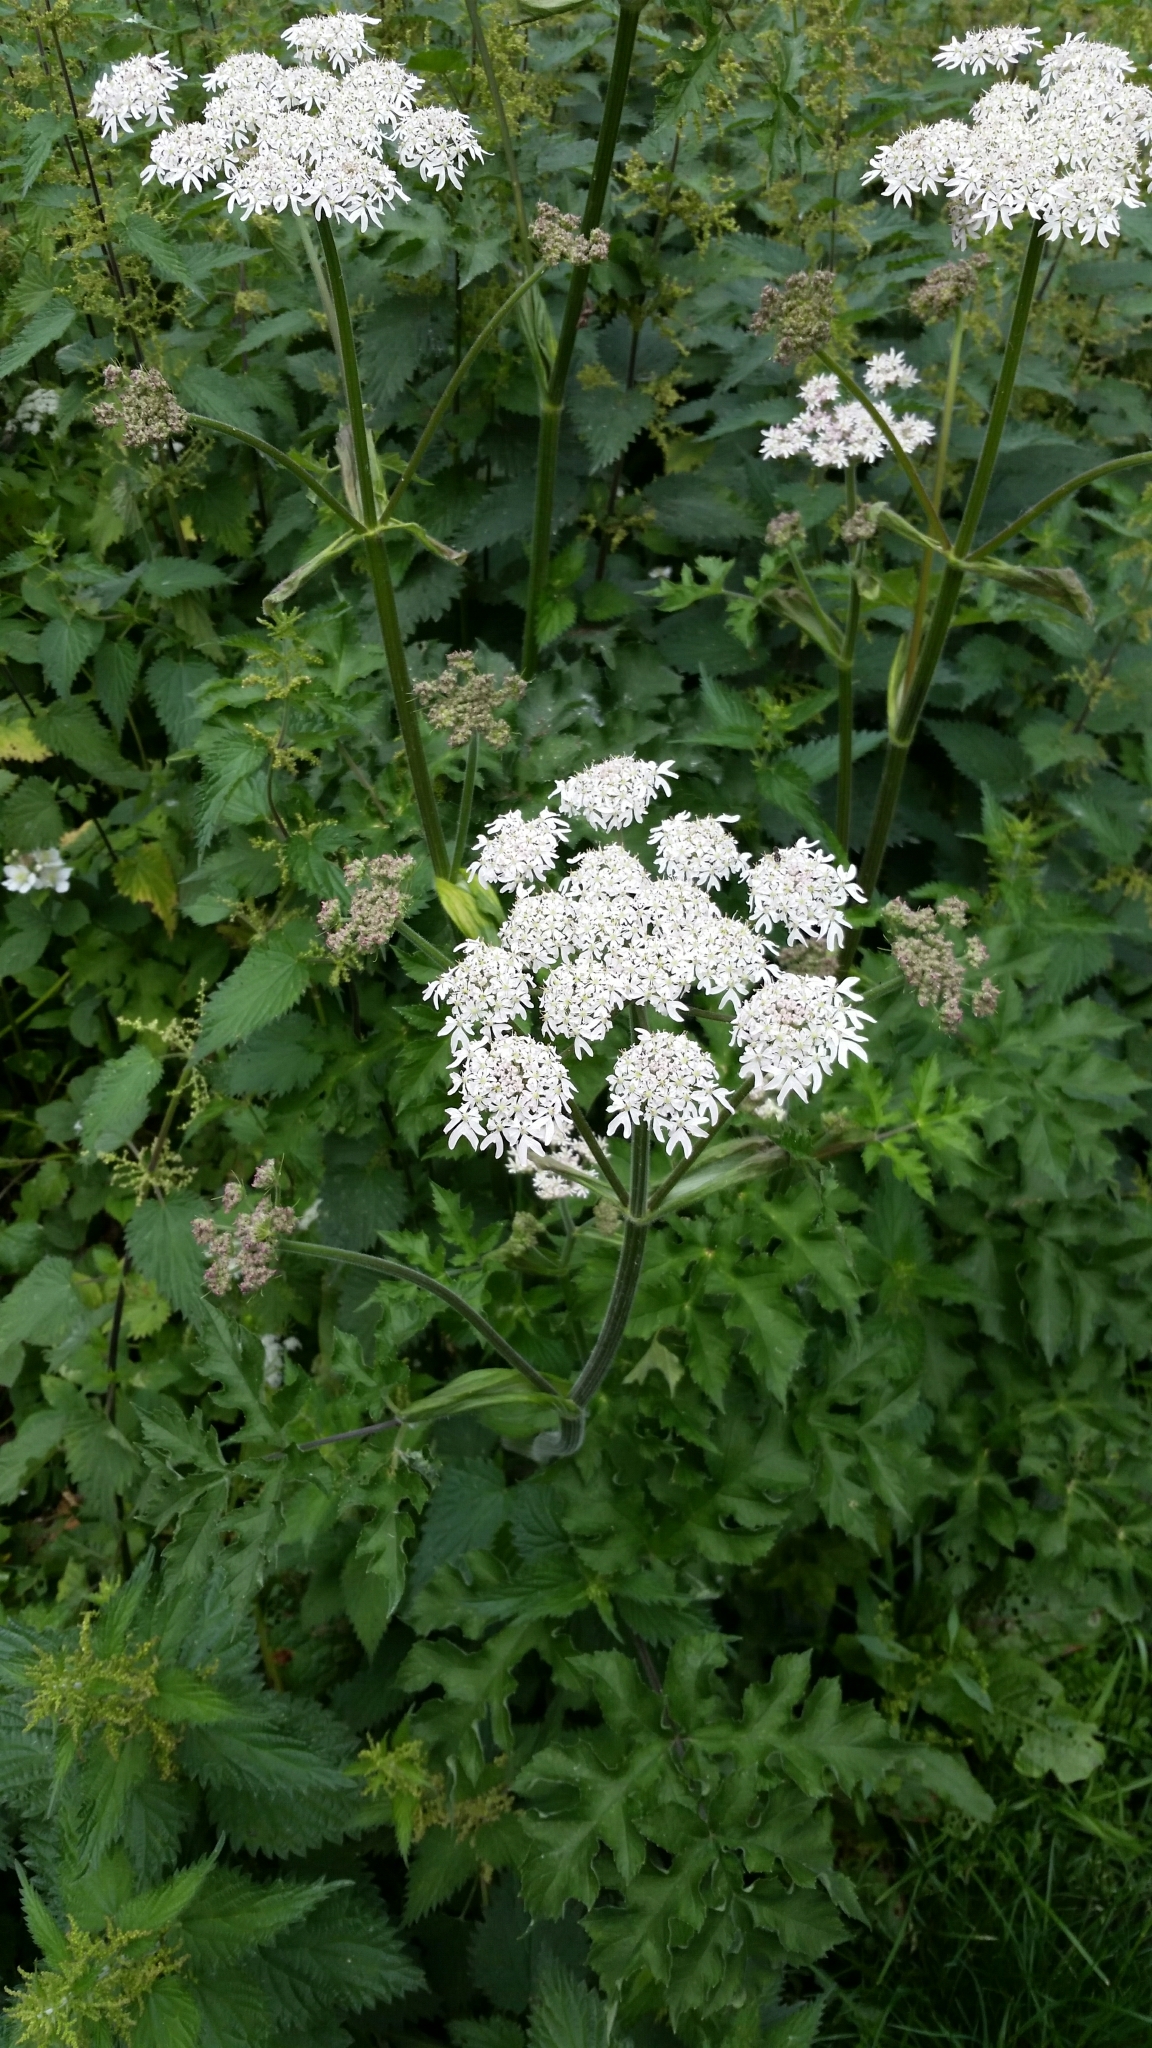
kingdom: Plantae
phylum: Tracheophyta
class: Magnoliopsida
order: Apiales
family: Apiaceae
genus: Heracleum
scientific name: Heracleum sphondylium
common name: Hogweed
